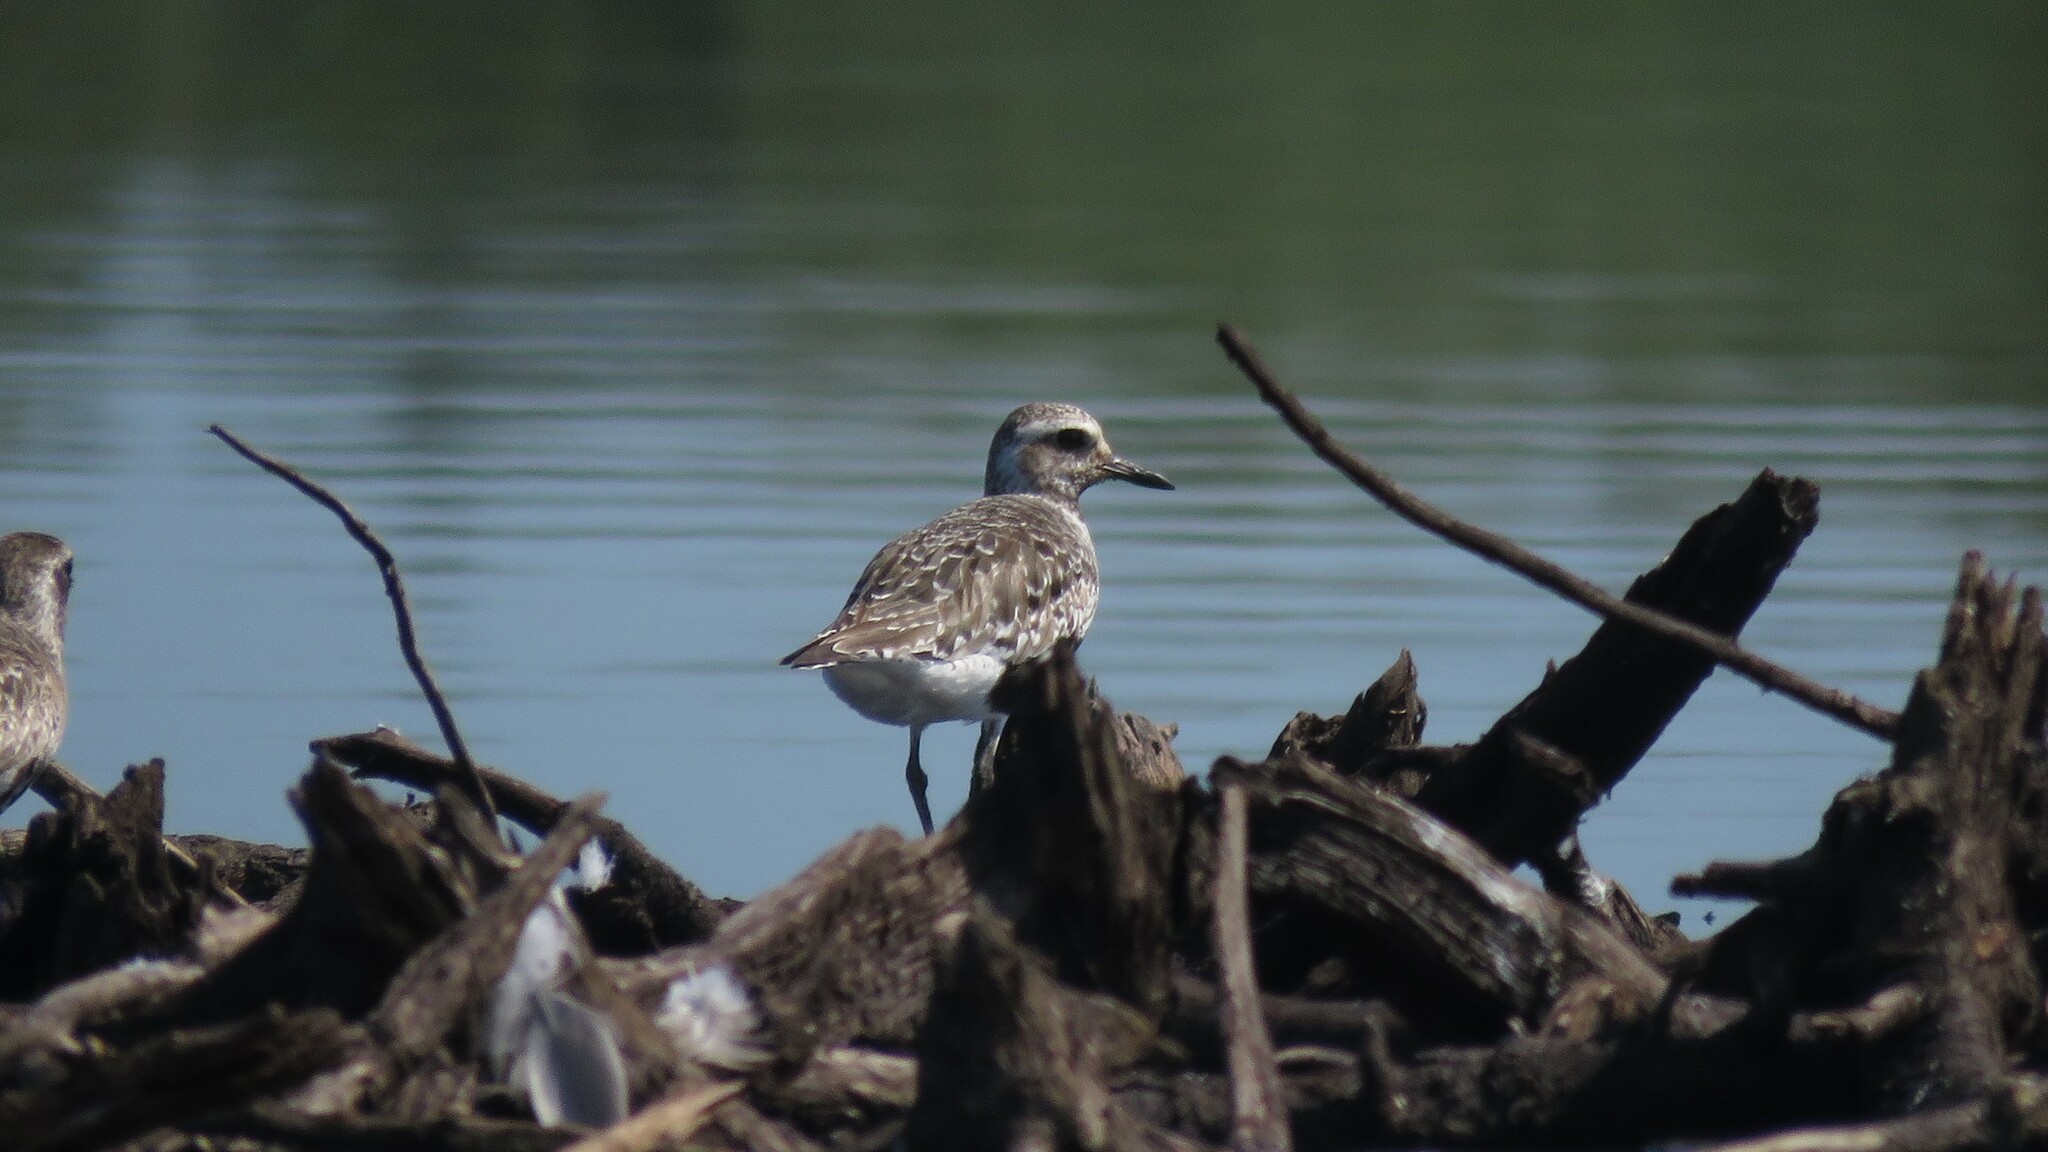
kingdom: Animalia
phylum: Chordata
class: Aves
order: Charadriiformes
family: Charadriidae
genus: Pluvialis
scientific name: Pluvialis squatarola
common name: Grey plover
